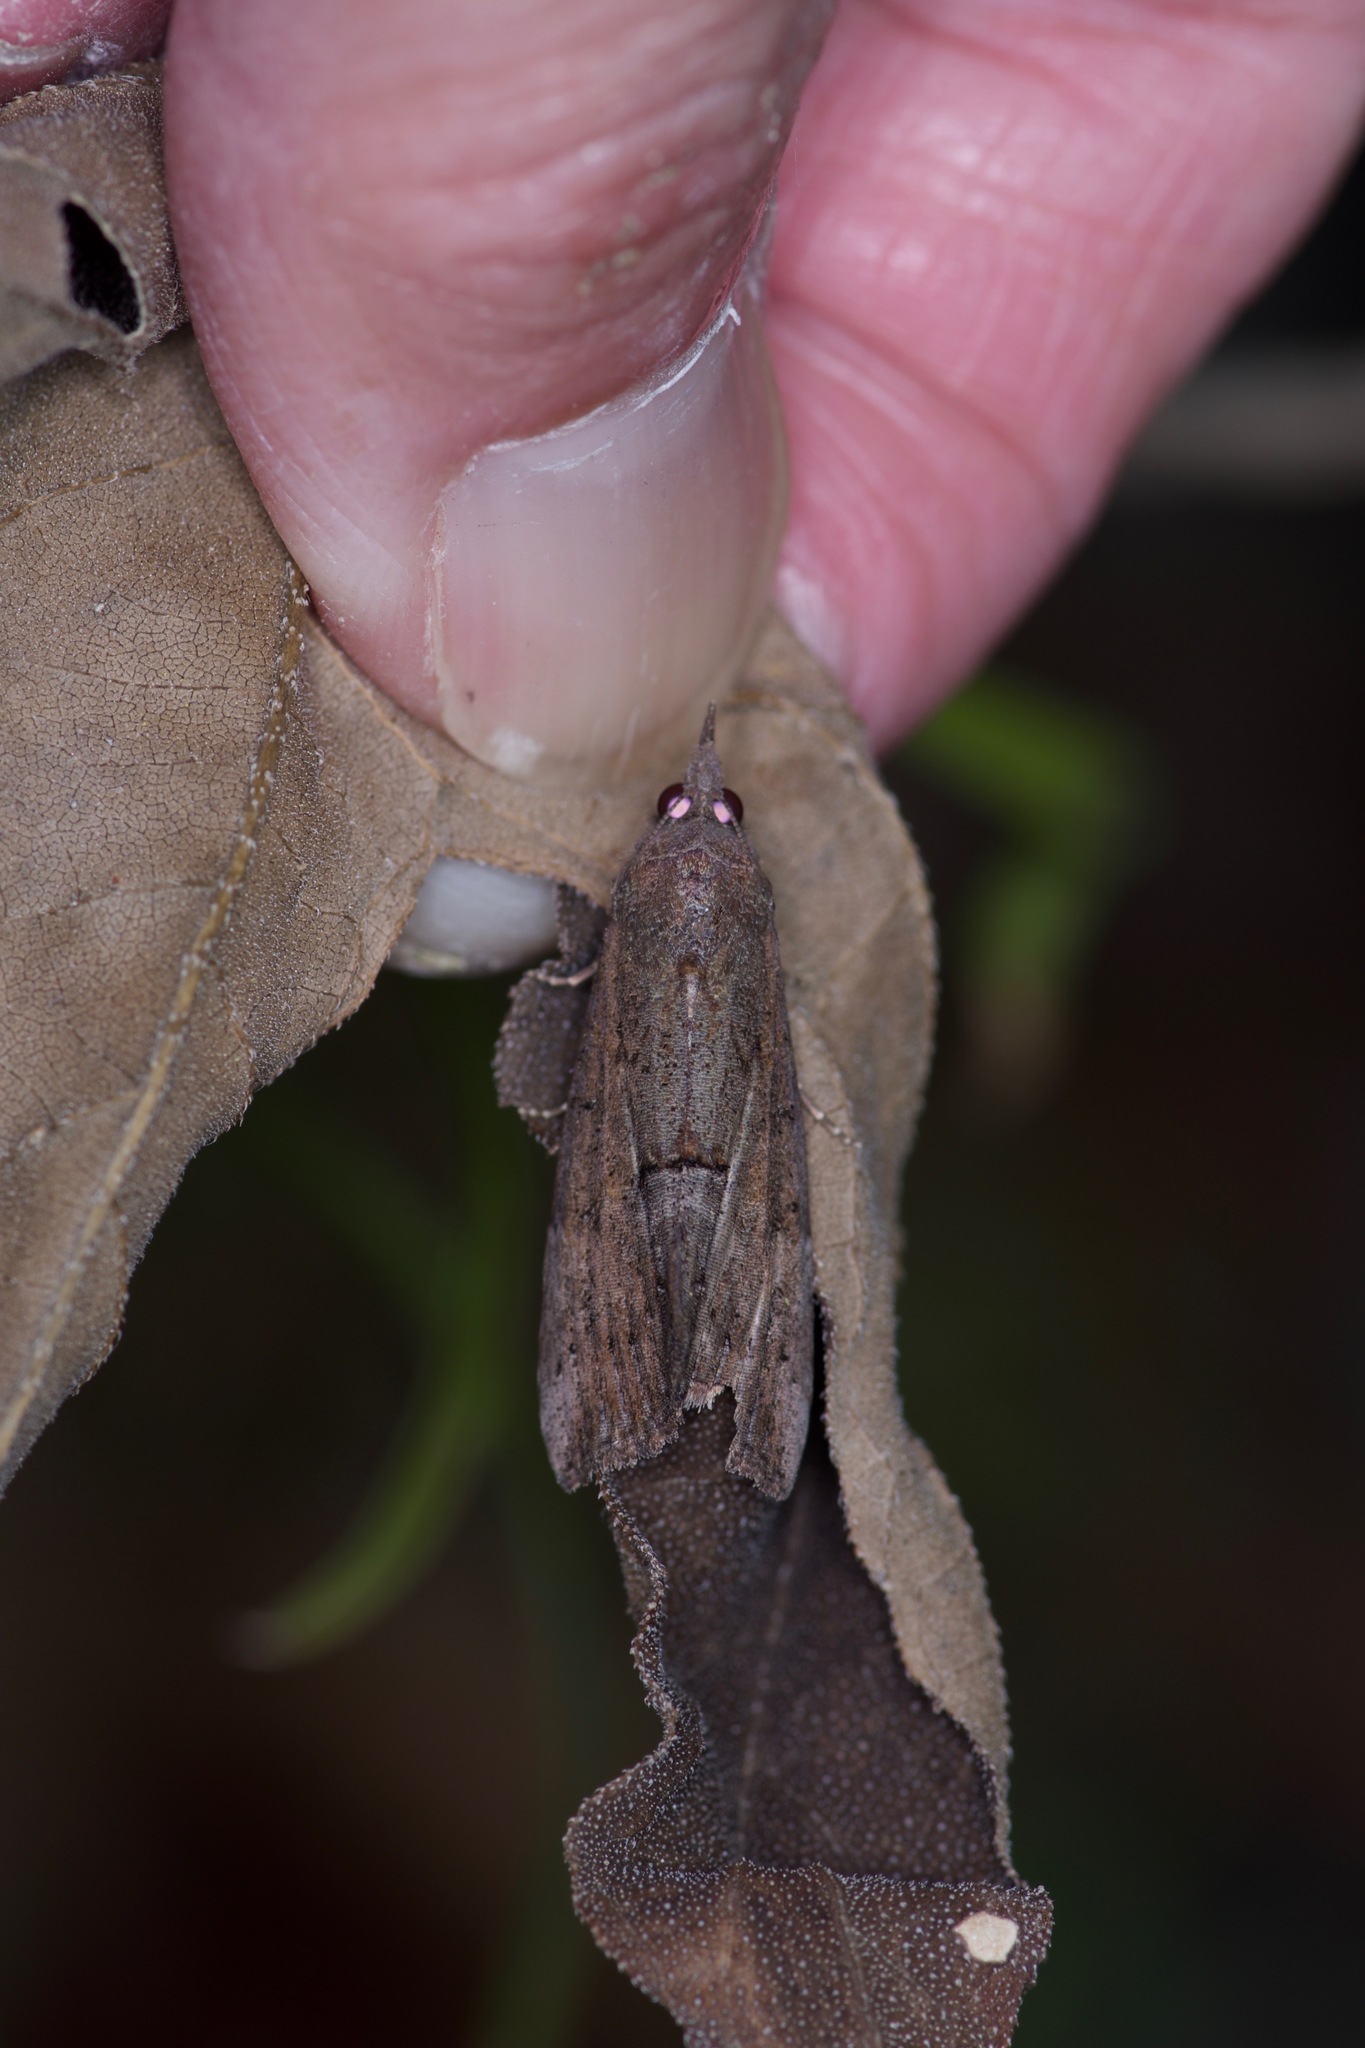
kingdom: Animalia
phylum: Arthropoda
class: Insecta
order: Lepidoptera
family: Erebidae
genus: Hypena
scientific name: Hypena scabra
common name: Green cloverworm
